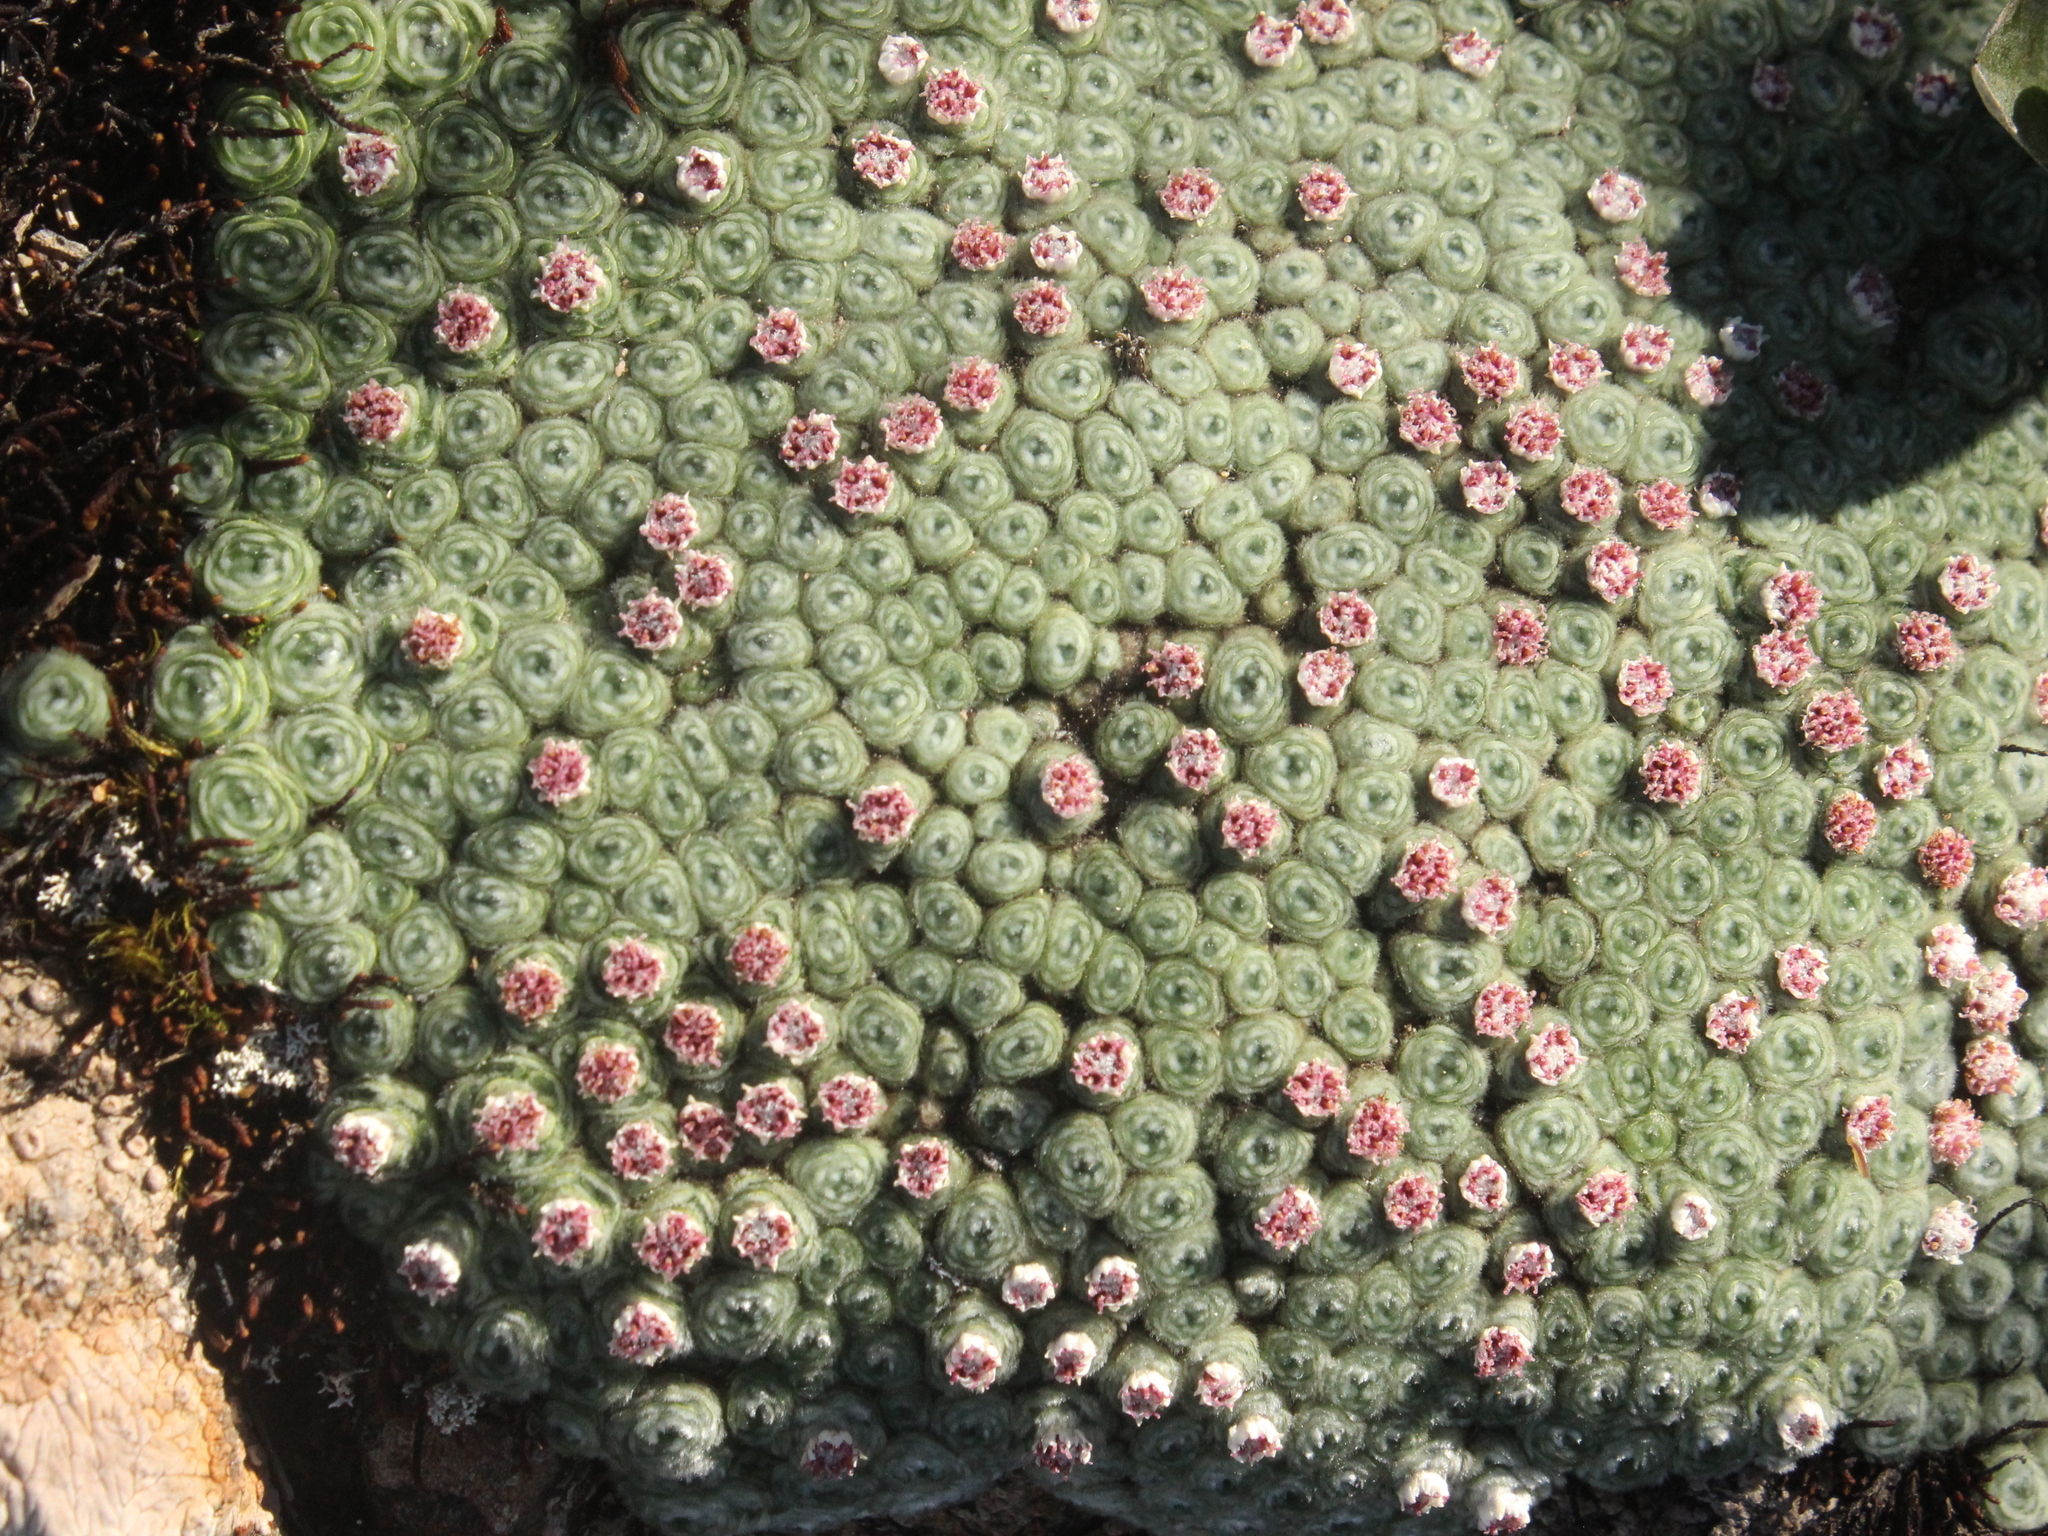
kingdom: Plantae
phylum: Tracheophyta
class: Magnoliopsida
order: Asterales
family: Asteraceae
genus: Raoulia
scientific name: Raoulia rubra
